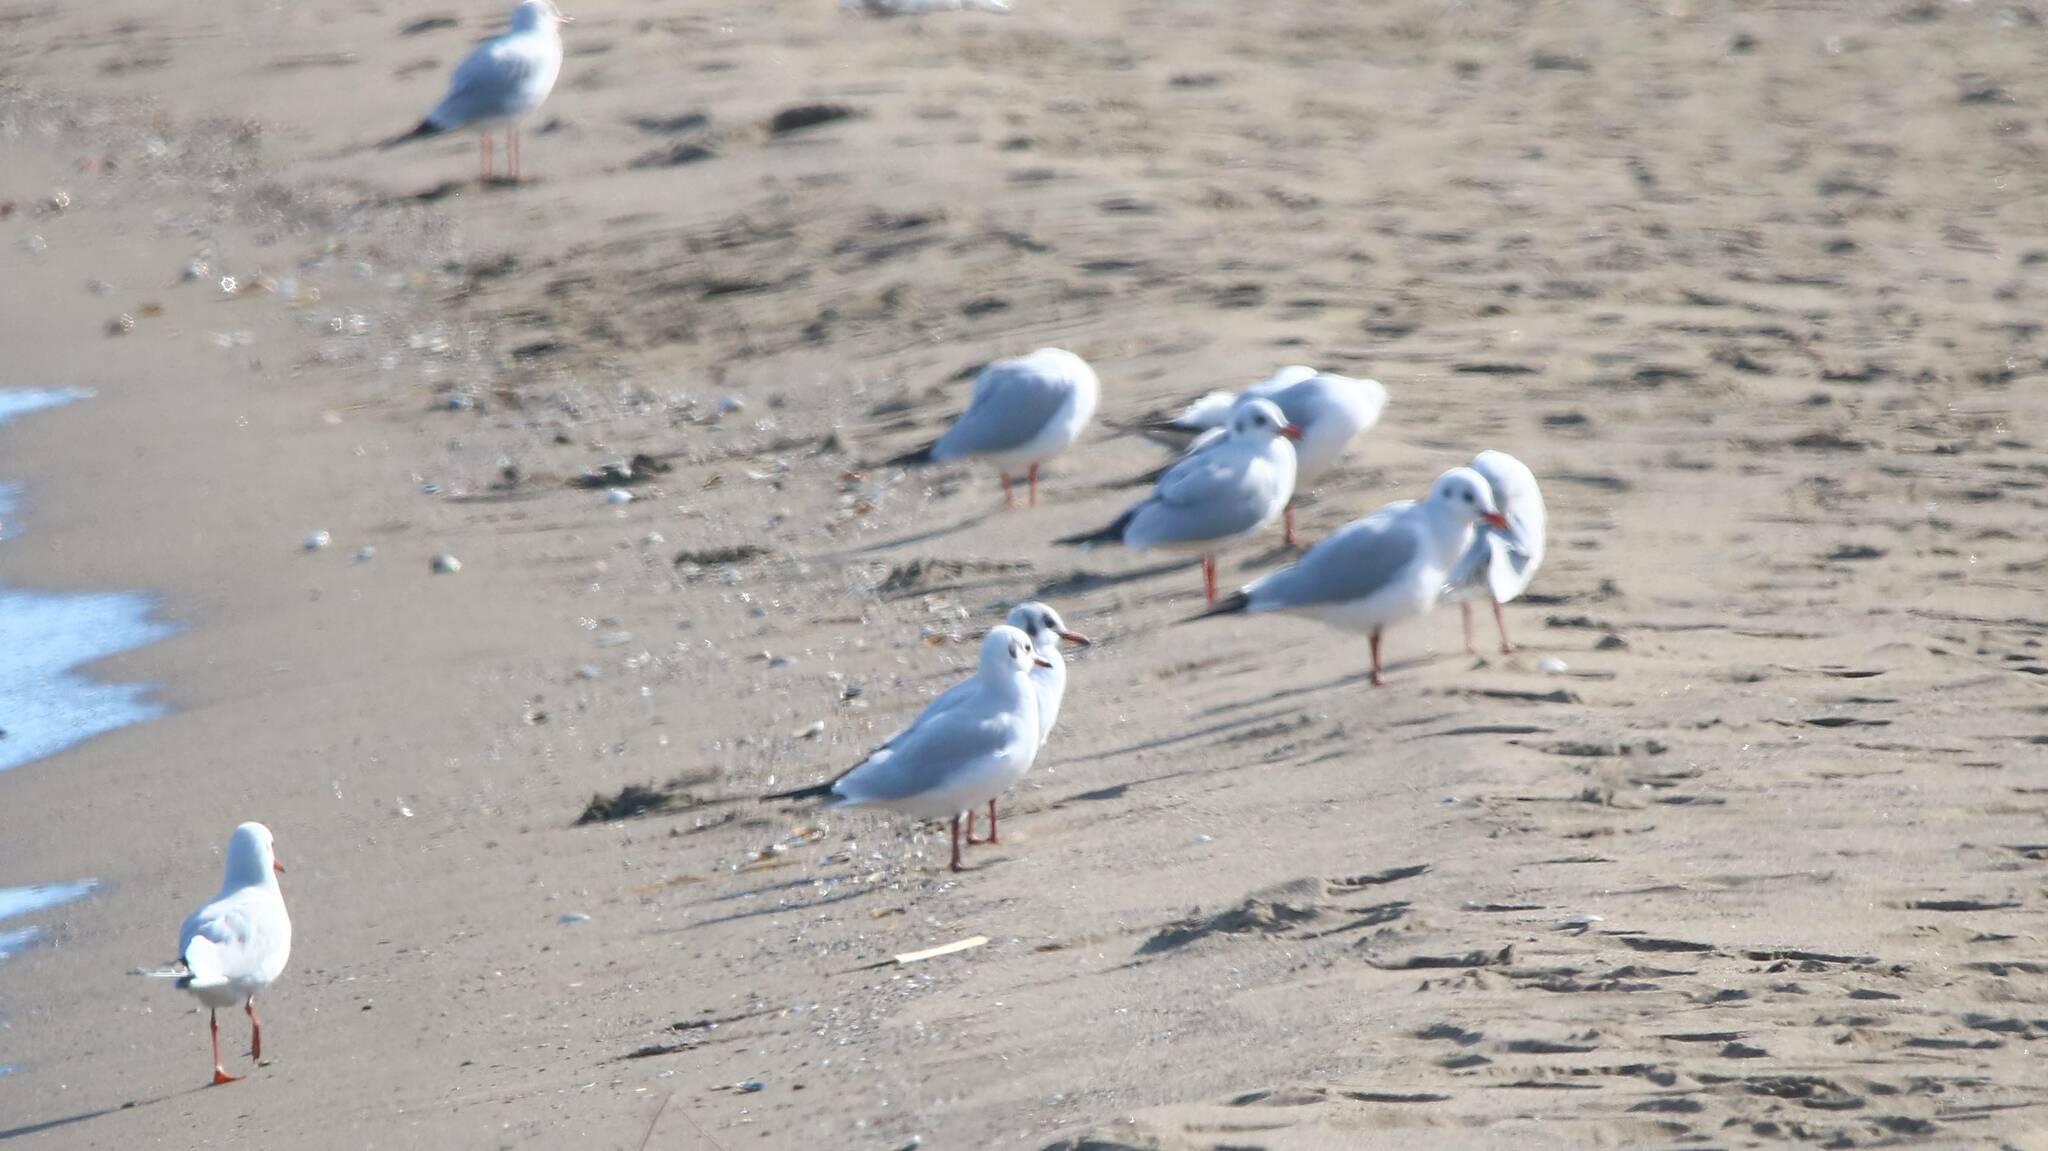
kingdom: Animalia
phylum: Chordata
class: Aves
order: Charadriiformes
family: Laridae
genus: Chroicocephalus
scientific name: Chroicocephalus ridibundus
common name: Black-headed gull
